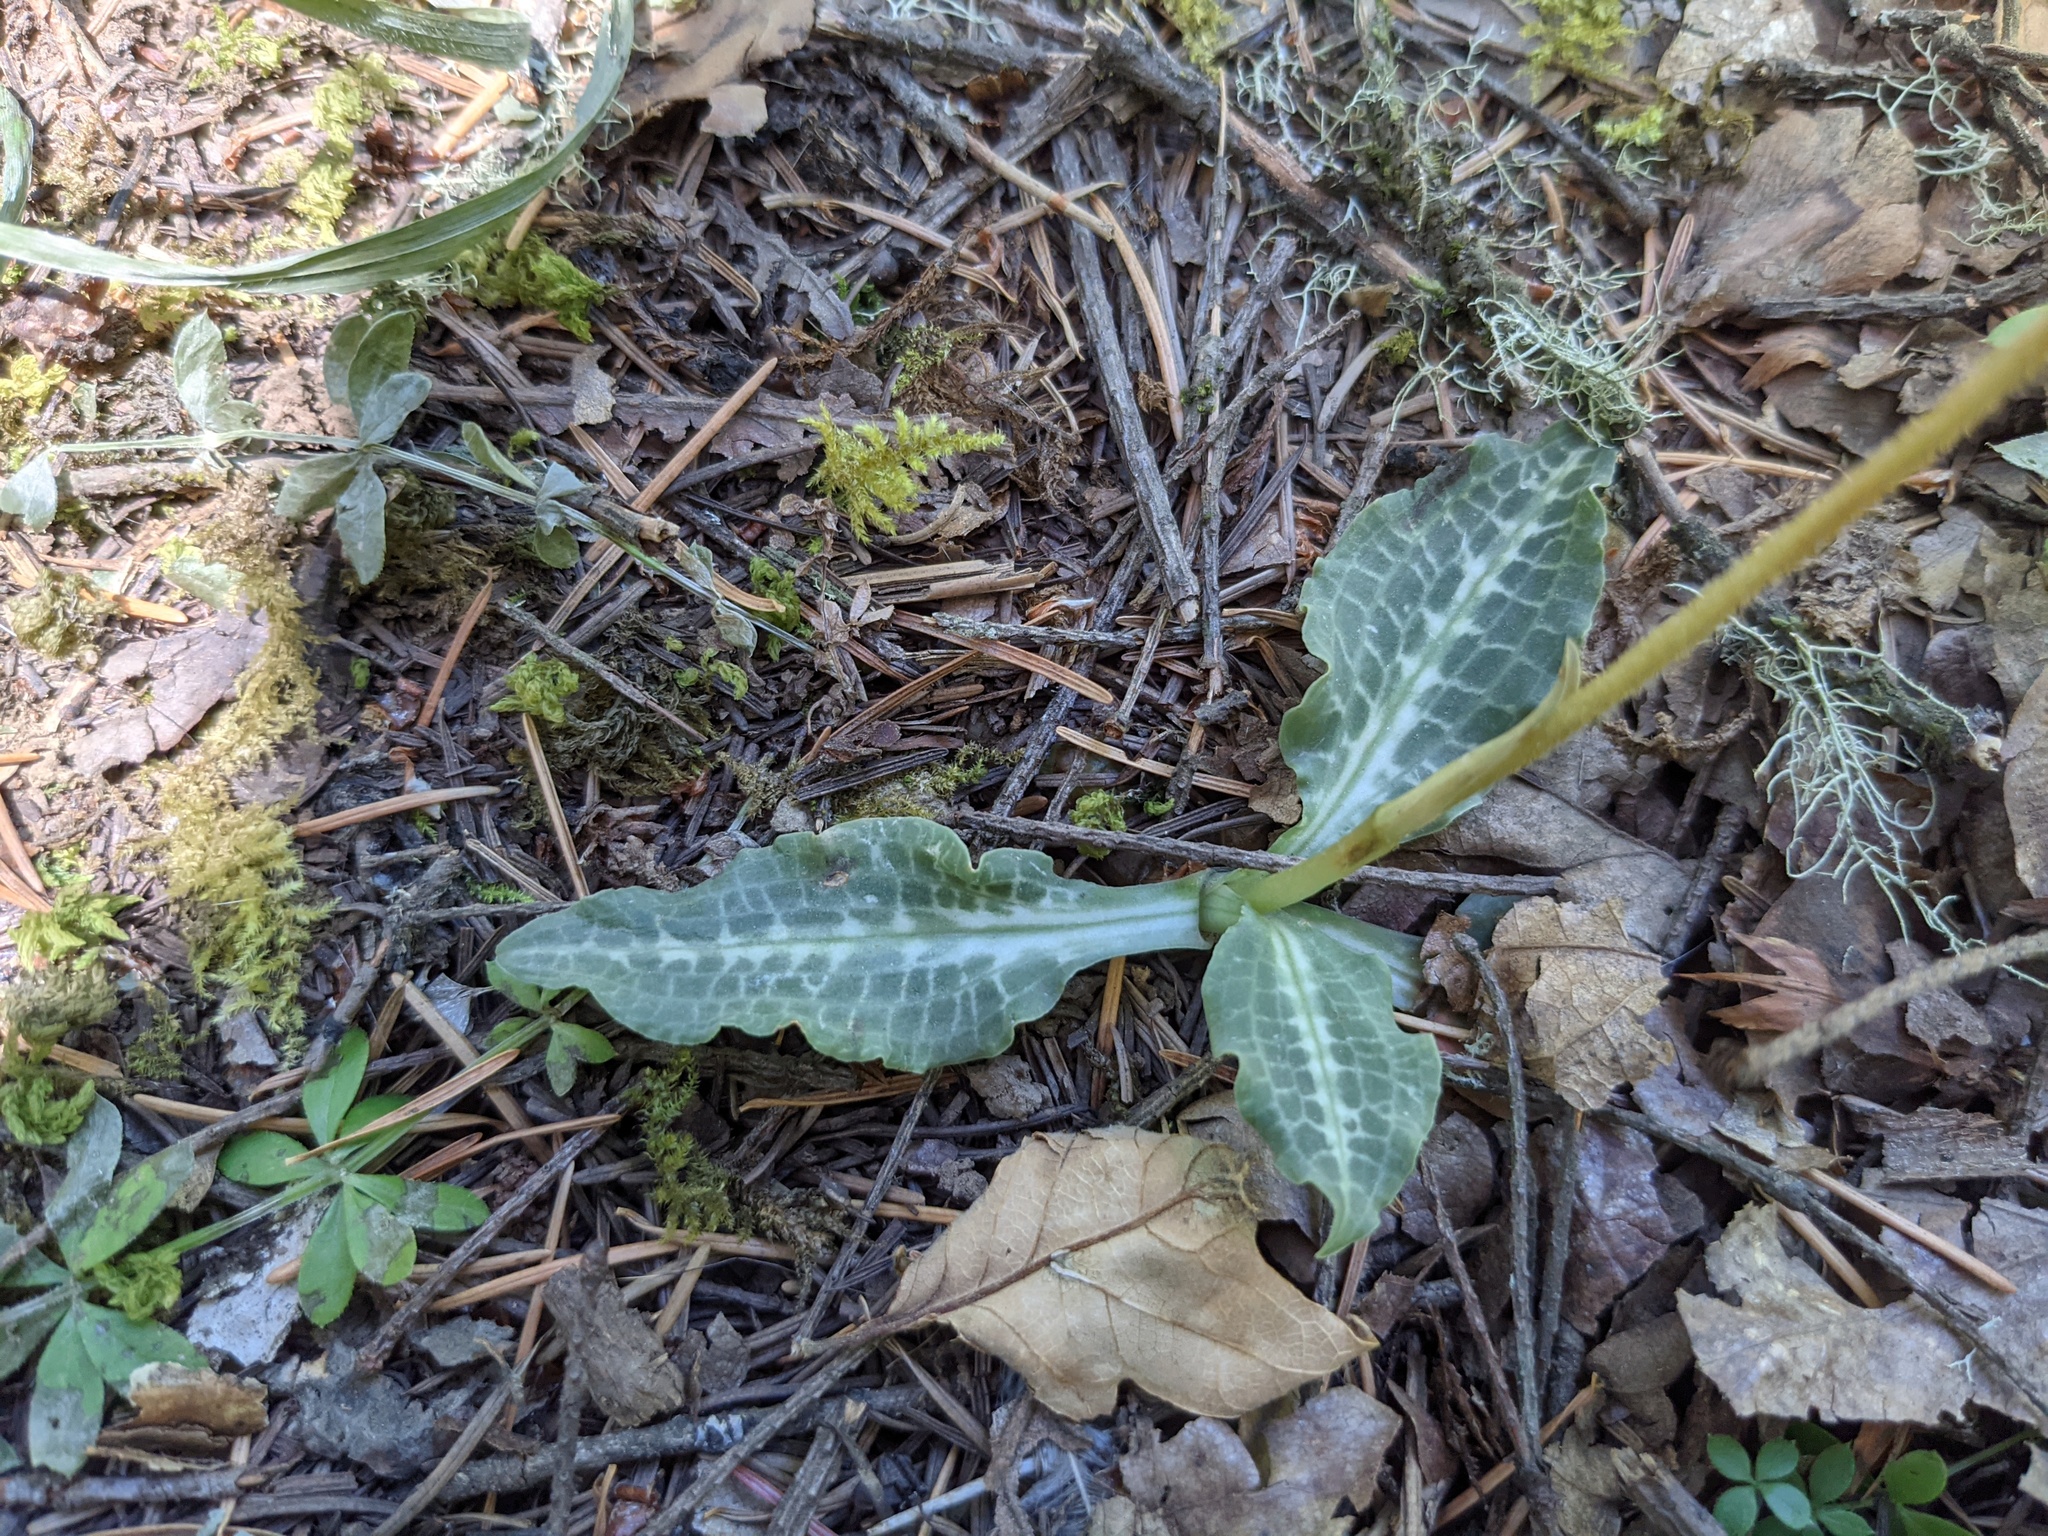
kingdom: Plantae
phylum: Tracheophyta
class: Liliopsida
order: Asparagales
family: Orchidaceae
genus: Goodyera
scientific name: Goodyera oblongifolia
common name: Giant rattlesnake-plantain
